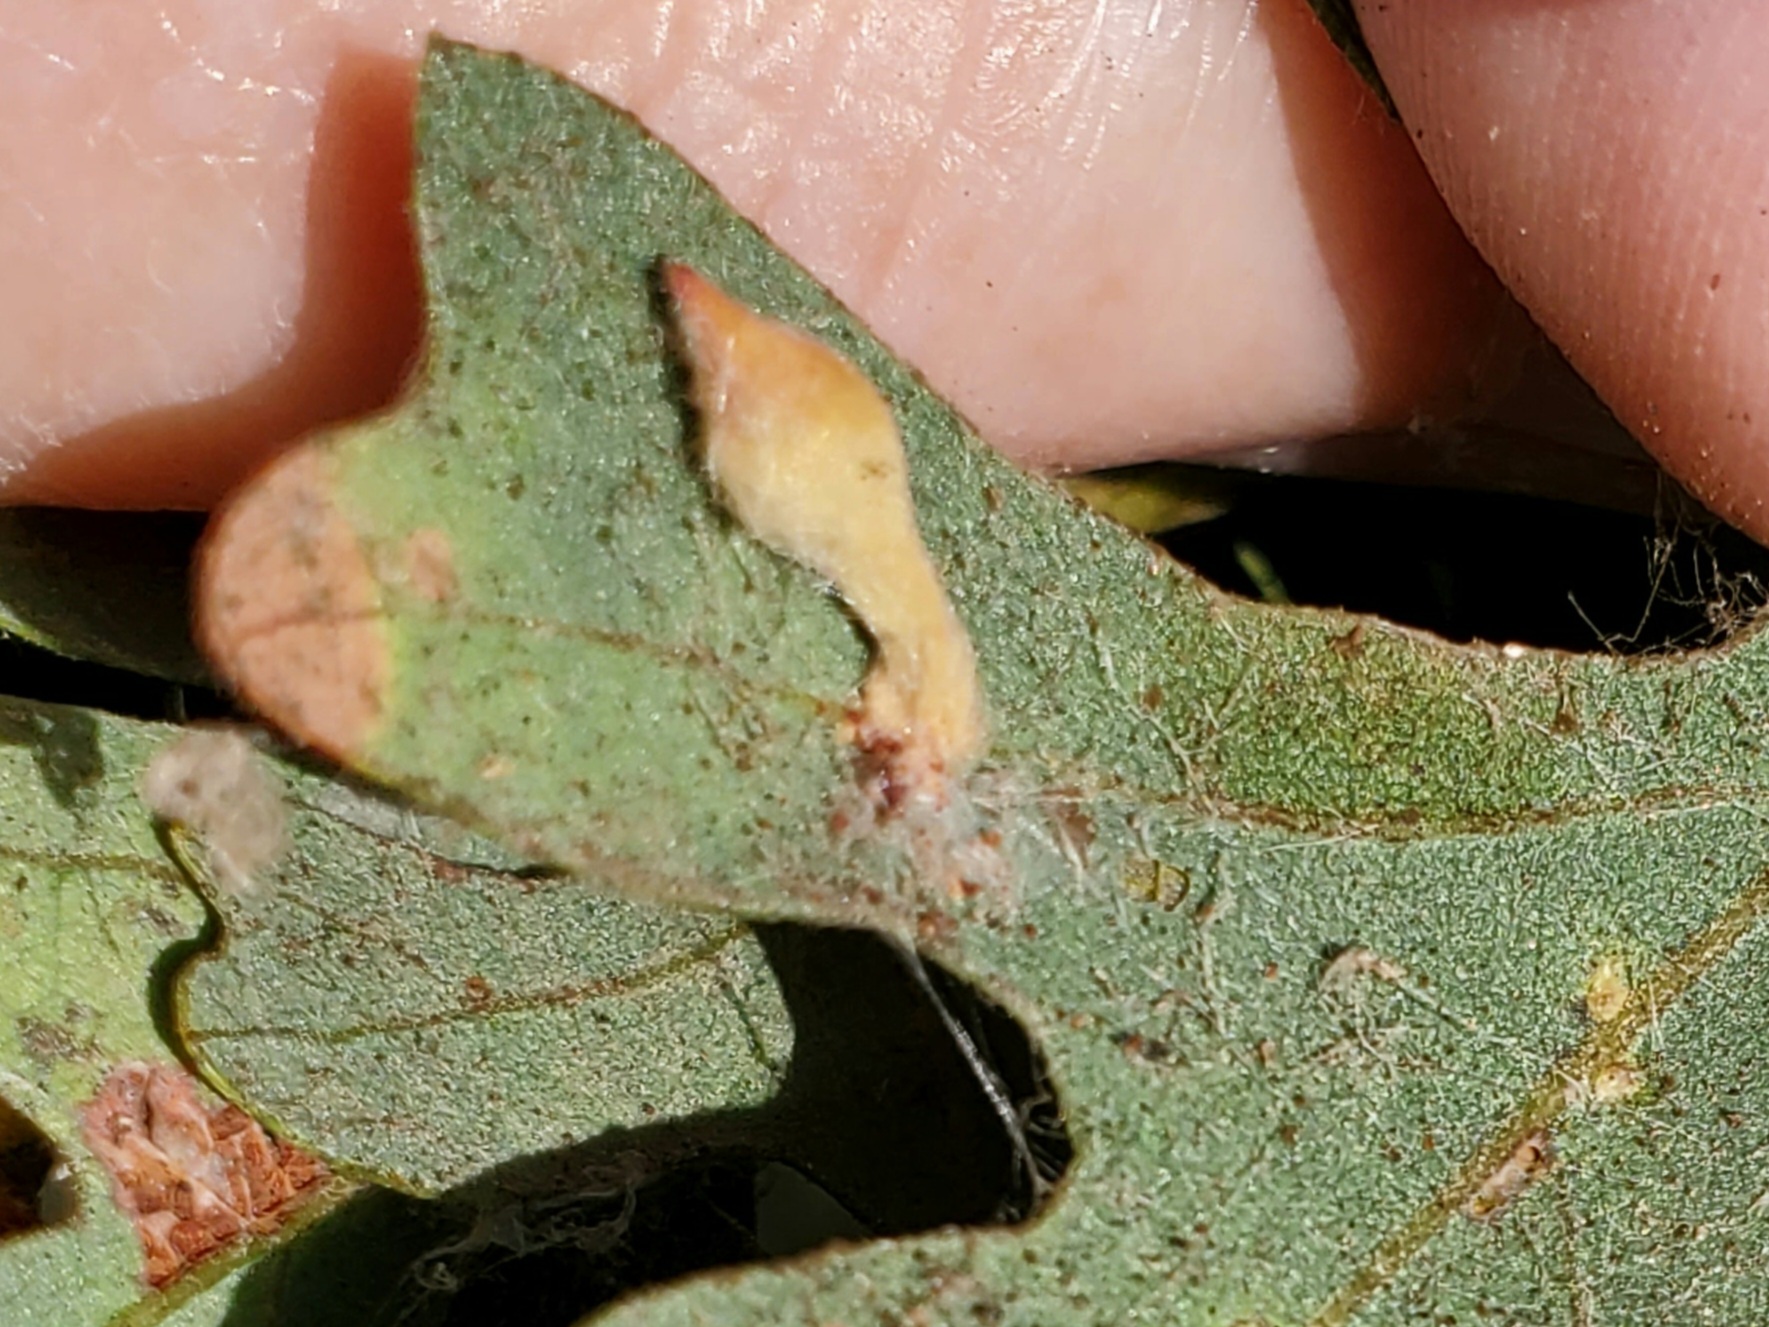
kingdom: Animalia
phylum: Arthropoda
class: Insecta
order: Hymenoptera
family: Cynipidae
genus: Atrusca
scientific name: Atrusca
